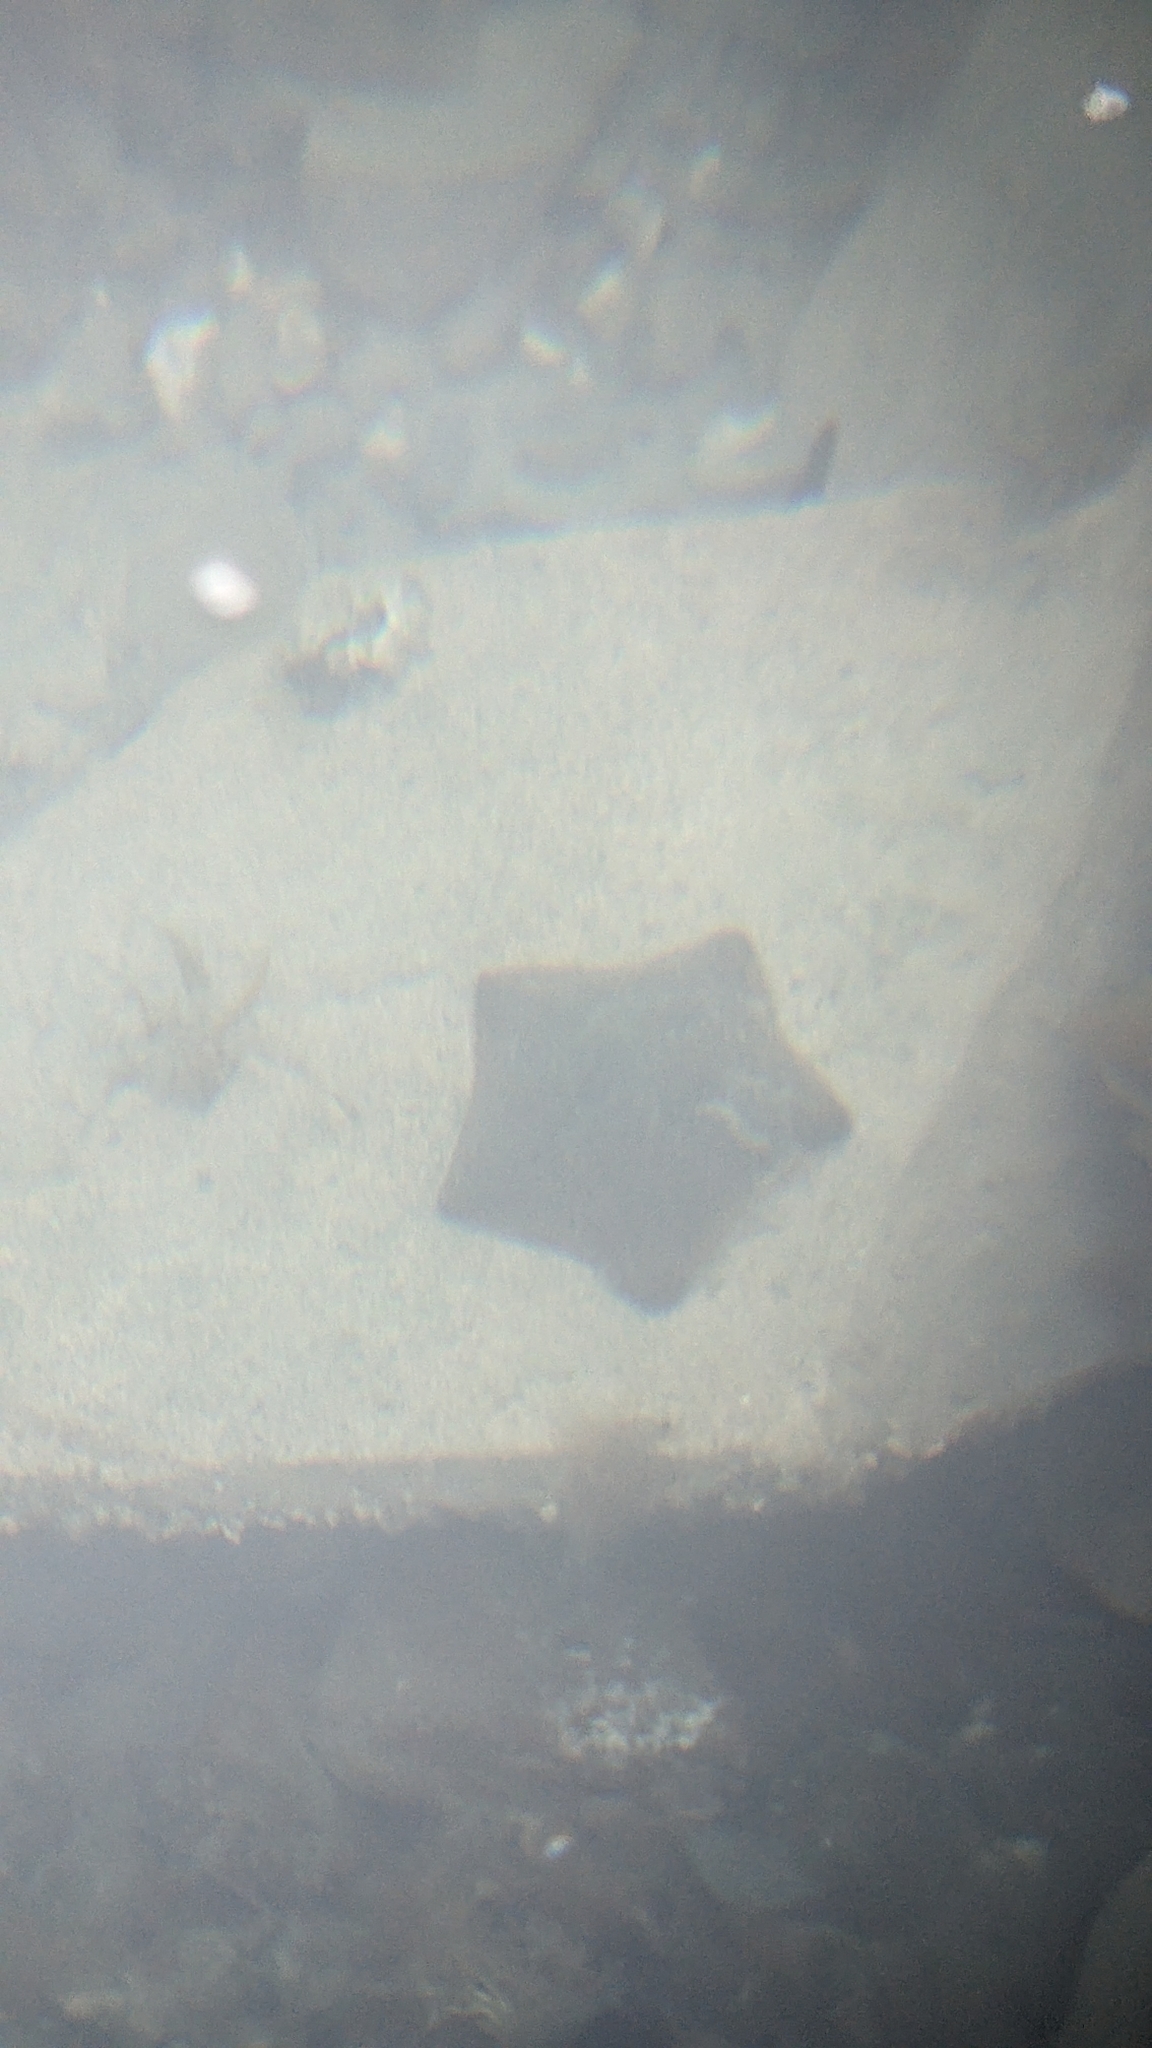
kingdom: Animalia
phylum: Echinodermata
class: Asteroidea
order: Valvatida
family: Asterinidae
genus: Patiriella
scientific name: Patiriella regularis
